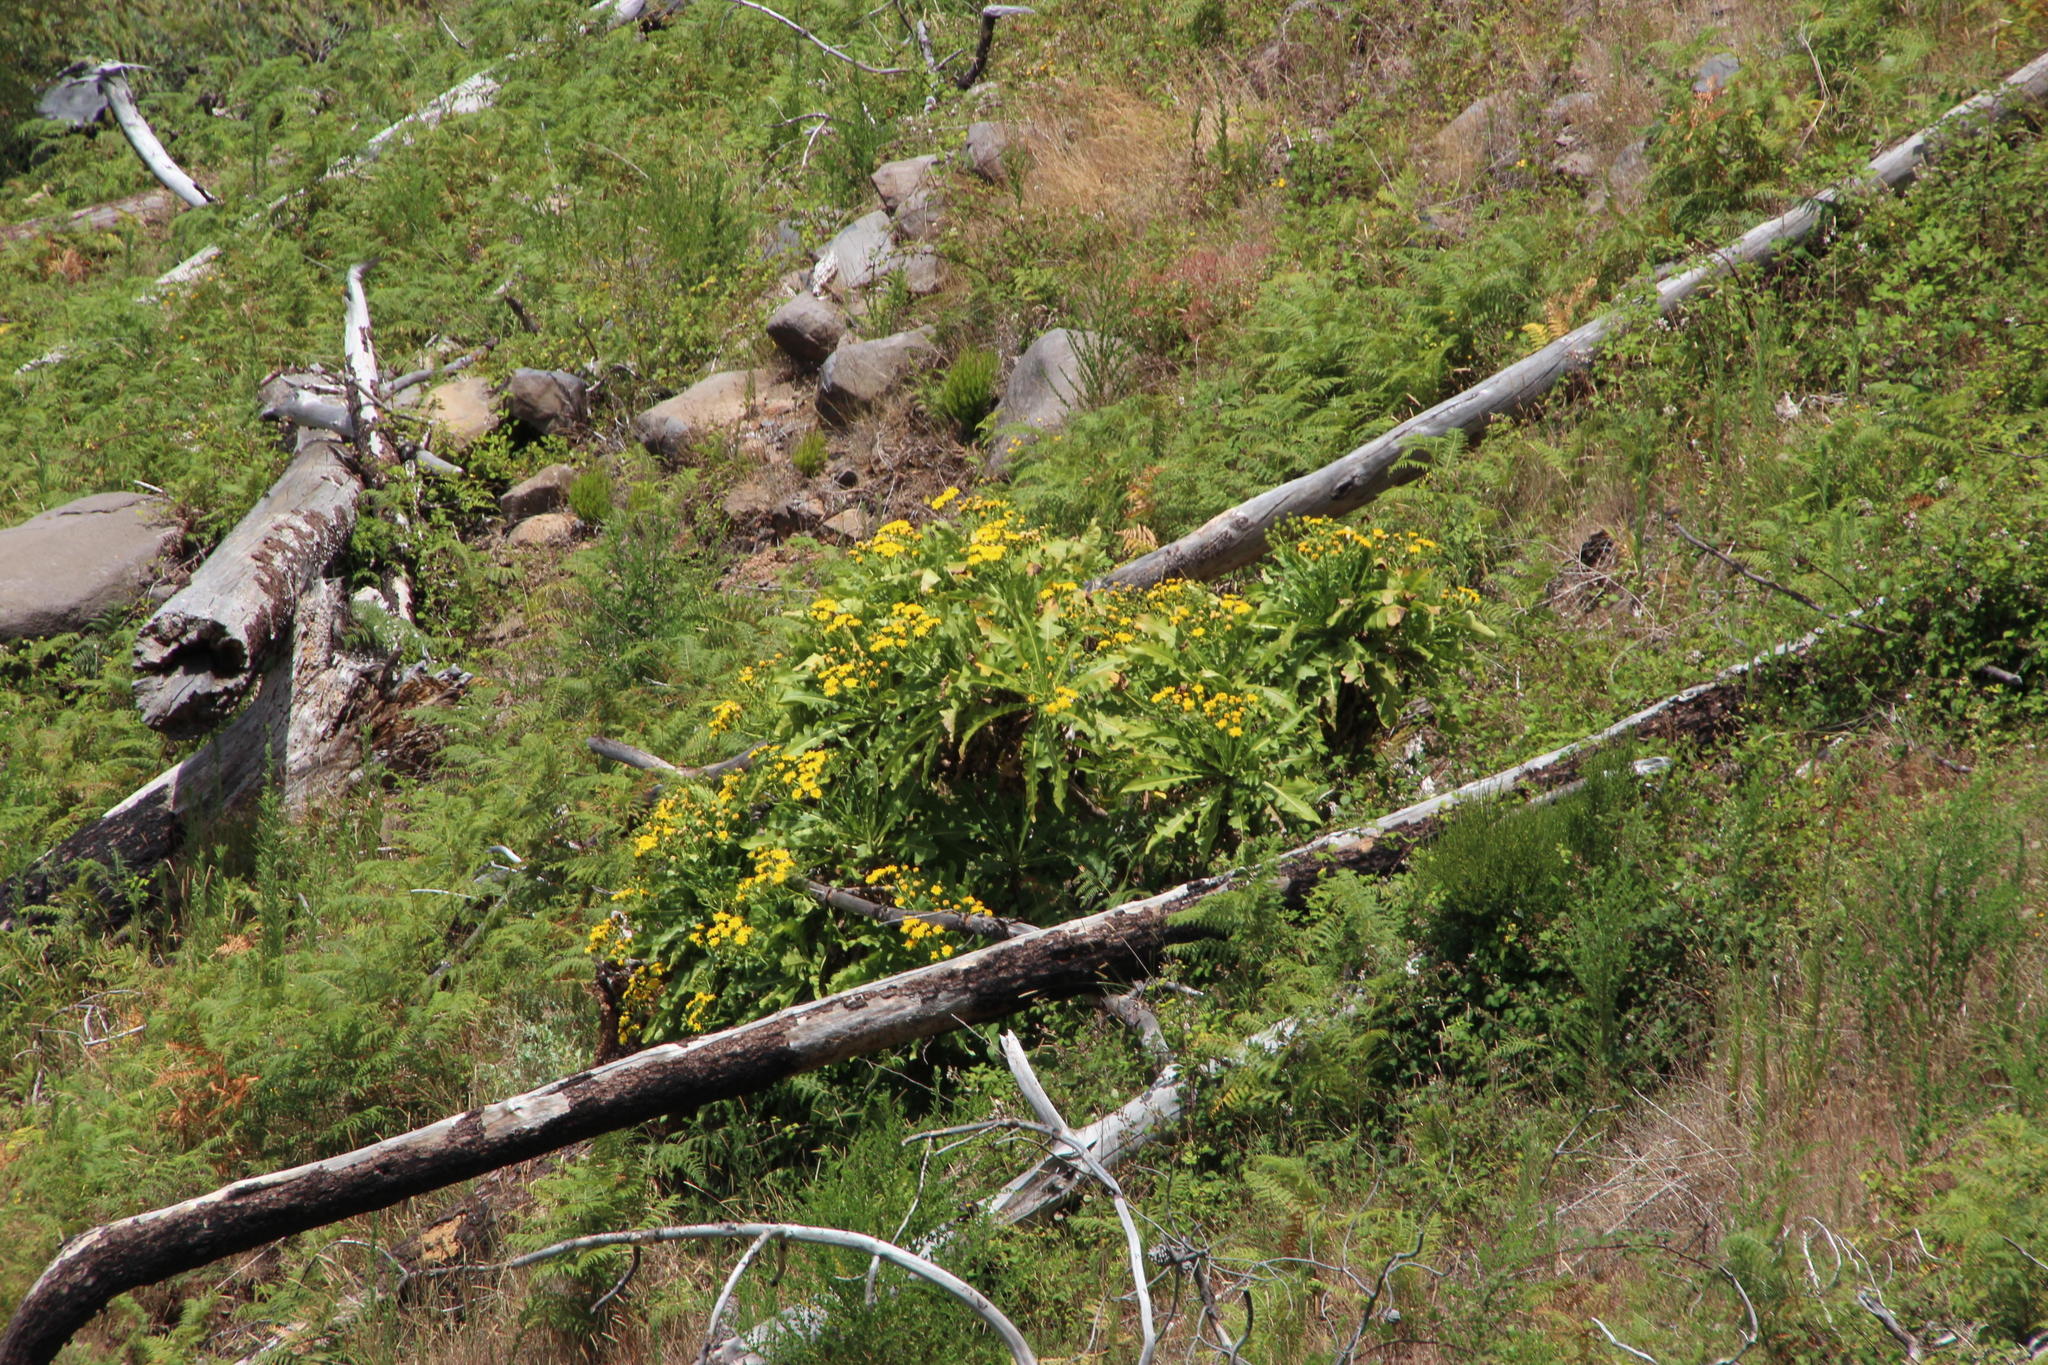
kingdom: Plantae
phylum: Tracheophyta
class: Magnoliopsida
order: Asterales
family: Asteraceae
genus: Sonchus
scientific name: Sonchus fruticosus
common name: Shrubby sow-thistle
